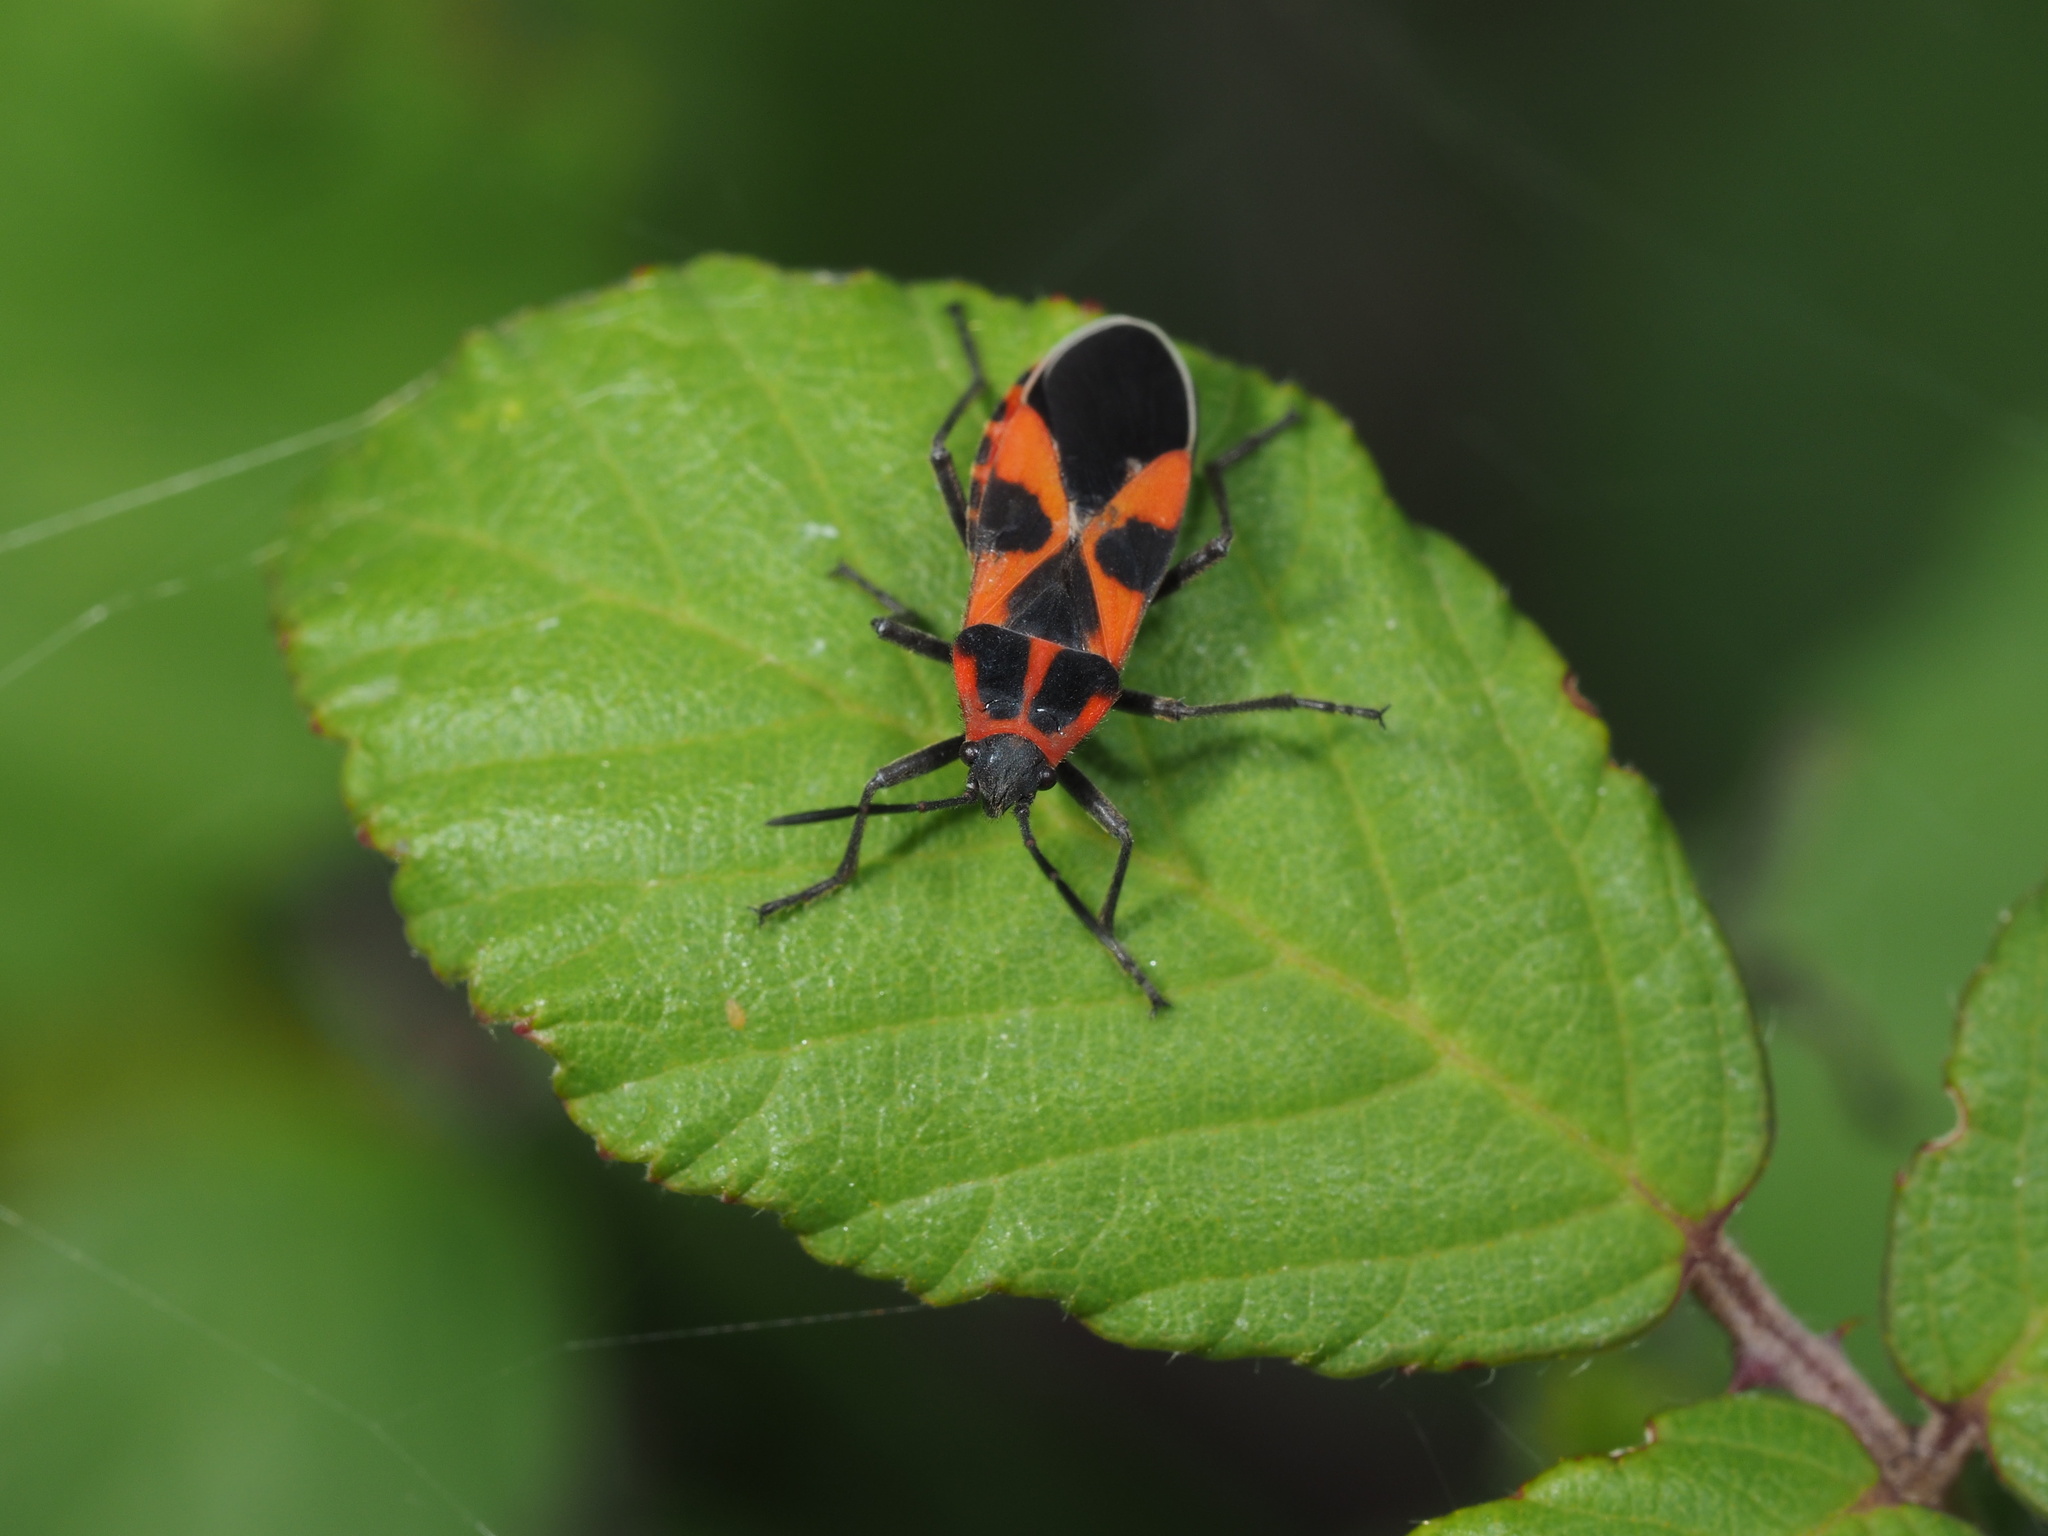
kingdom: Animalia
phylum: Arthropoda
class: Insecta
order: Hemiptera
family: Lygaeidae
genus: Tropidothorax
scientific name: Tropidothorax leucopterus
